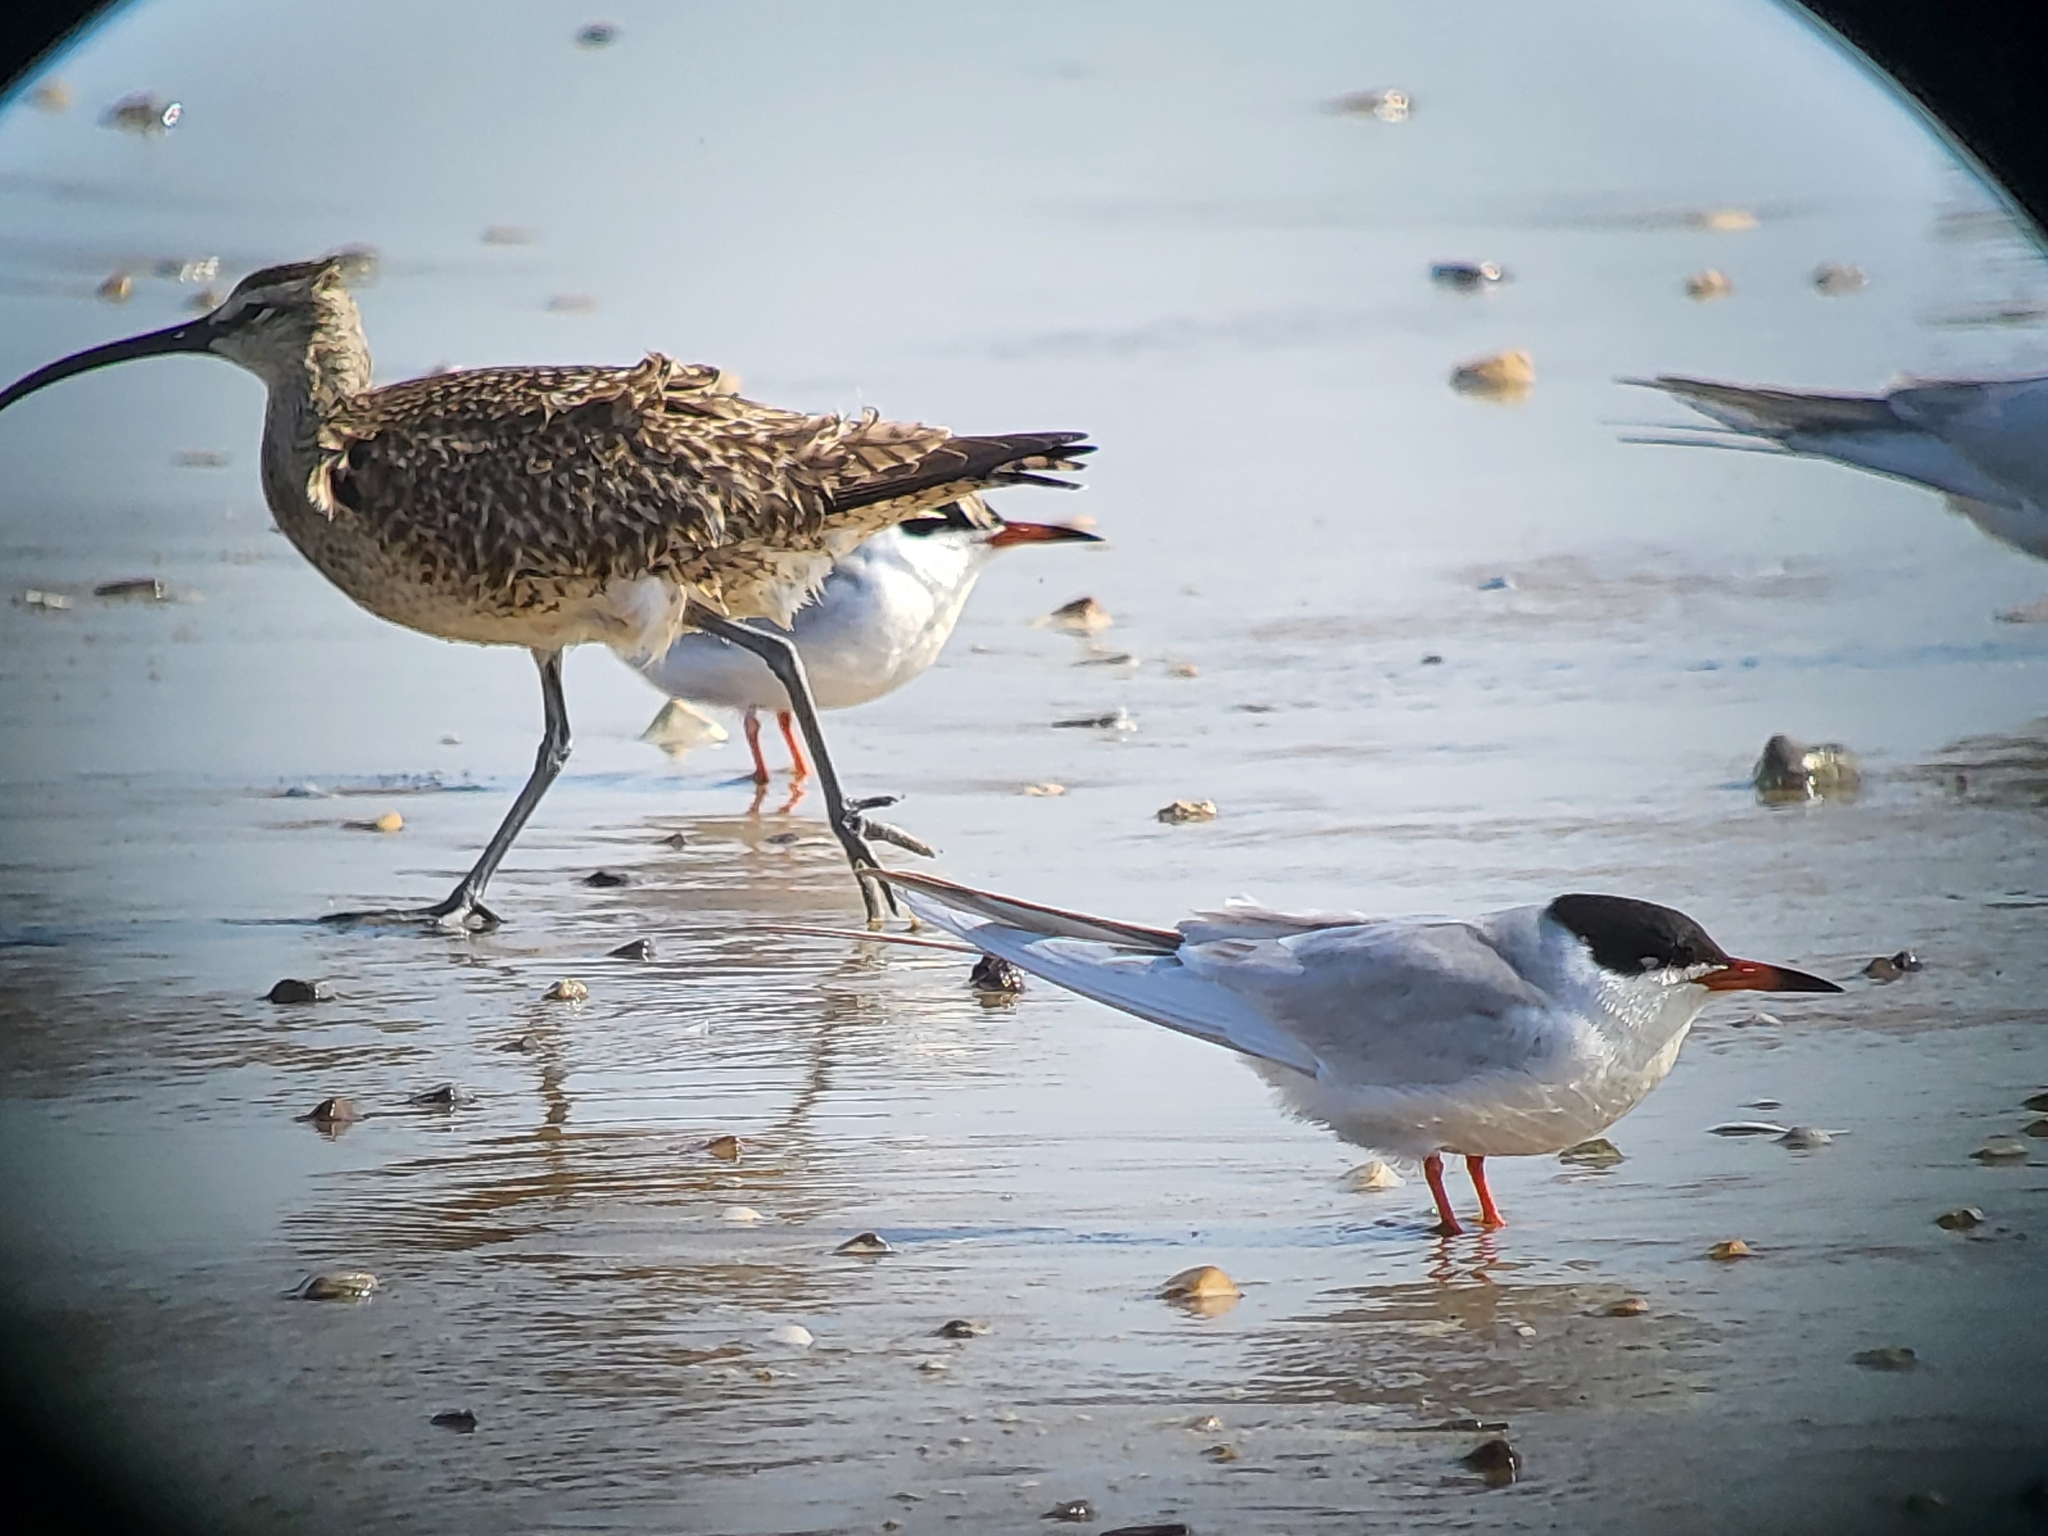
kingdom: Animalia
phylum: Chordata
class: Aves
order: Charadriiformes
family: Scolopacidae
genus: Numenius
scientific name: Numenius phaeopus
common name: Whimbrel
